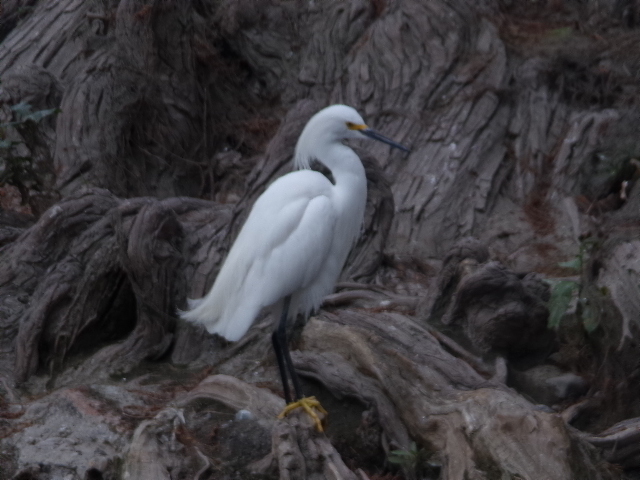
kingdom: Animalia
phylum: Chordata
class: Aves
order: Pelecaniformes
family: Ardeidae
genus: Egretta
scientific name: Egretta thula
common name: Snowy egret
